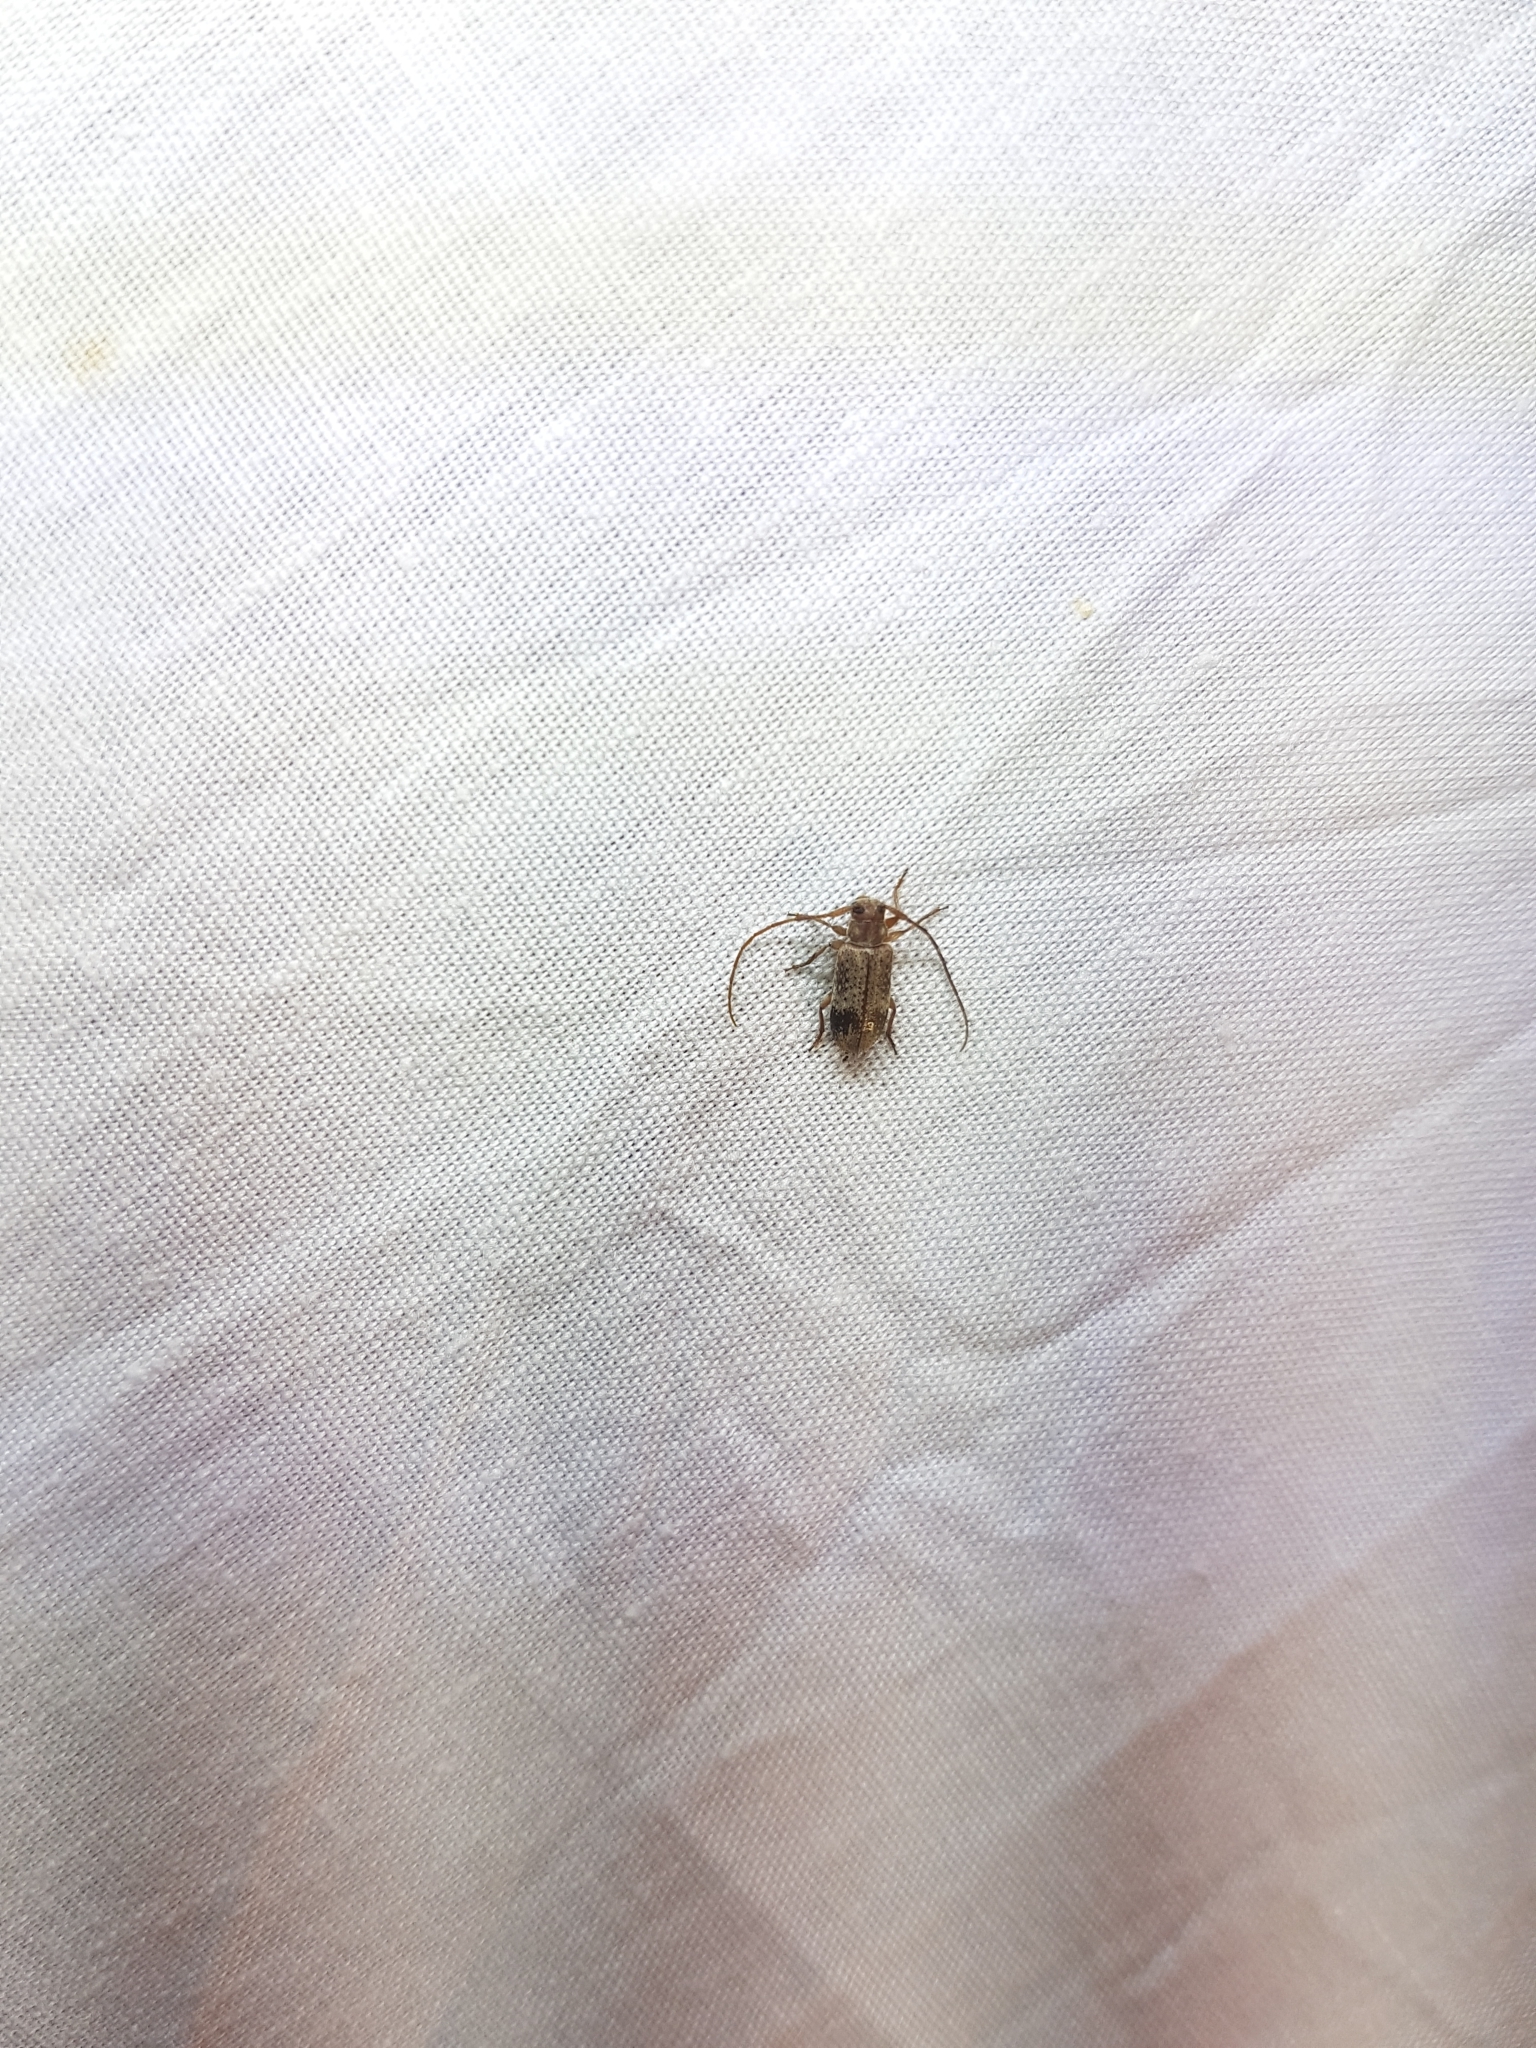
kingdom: Animalia
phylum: Arthropoda
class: Insecta
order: Coleoptera
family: Cerambycidae
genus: Exocentrus
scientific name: Exocentrus adspersus
